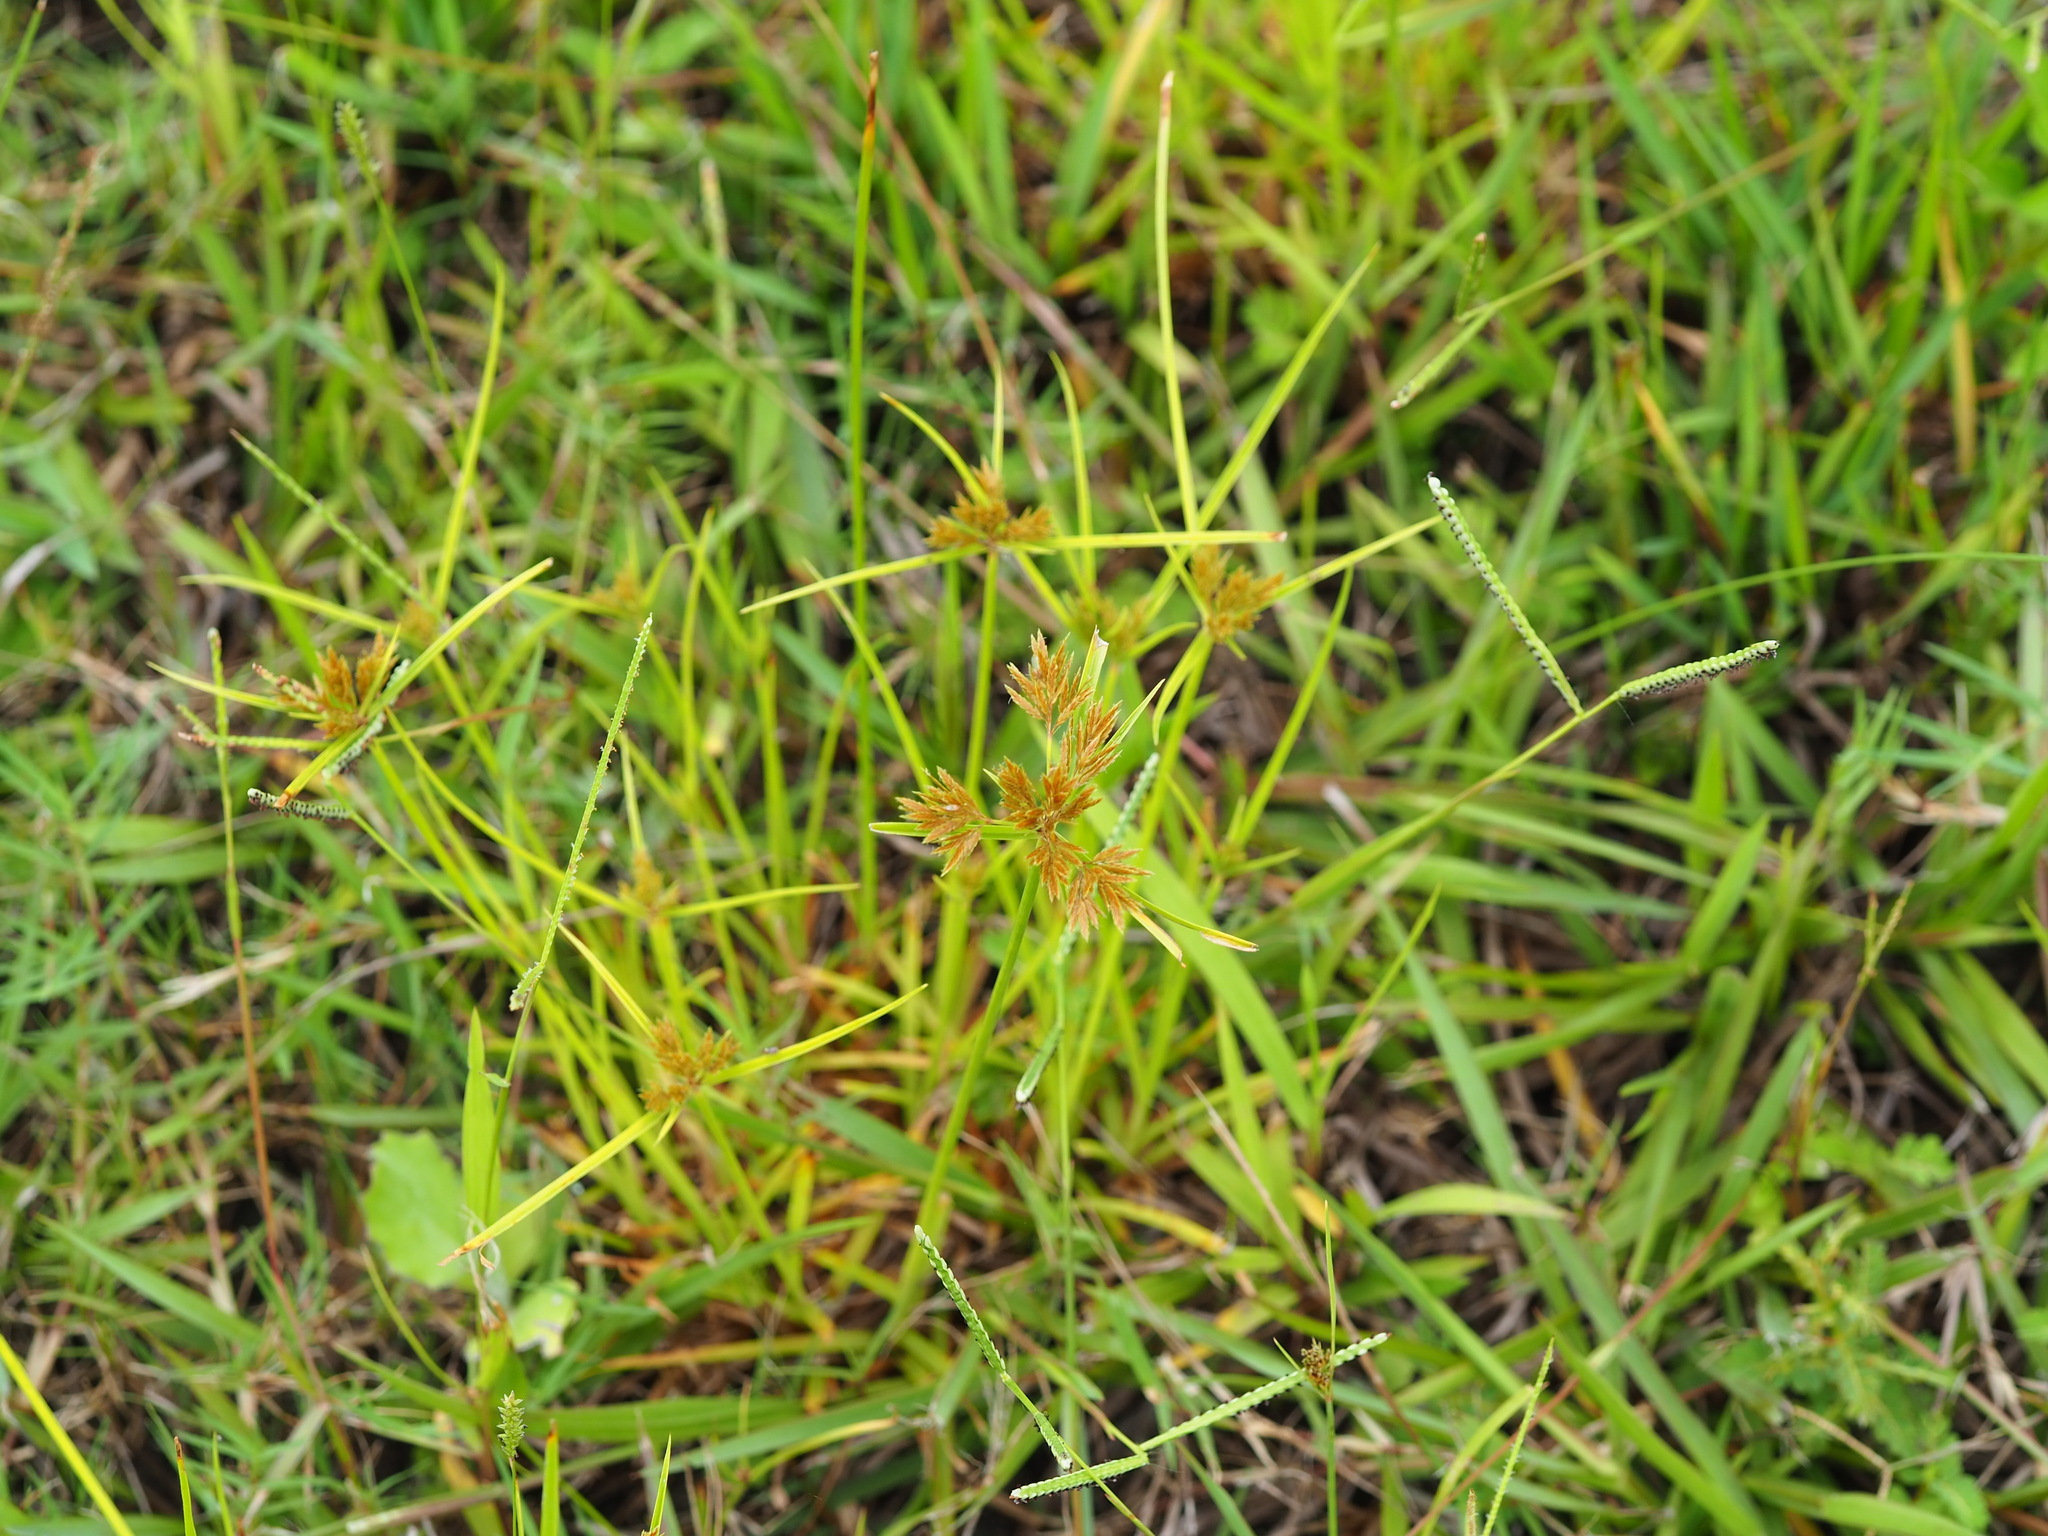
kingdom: Plantae
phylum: Tracheophyta
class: Liliopsida
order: Poales
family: Cyperaceae
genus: Cyperus
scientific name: Cyperus polystachyos
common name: Bunchy flat sedge
